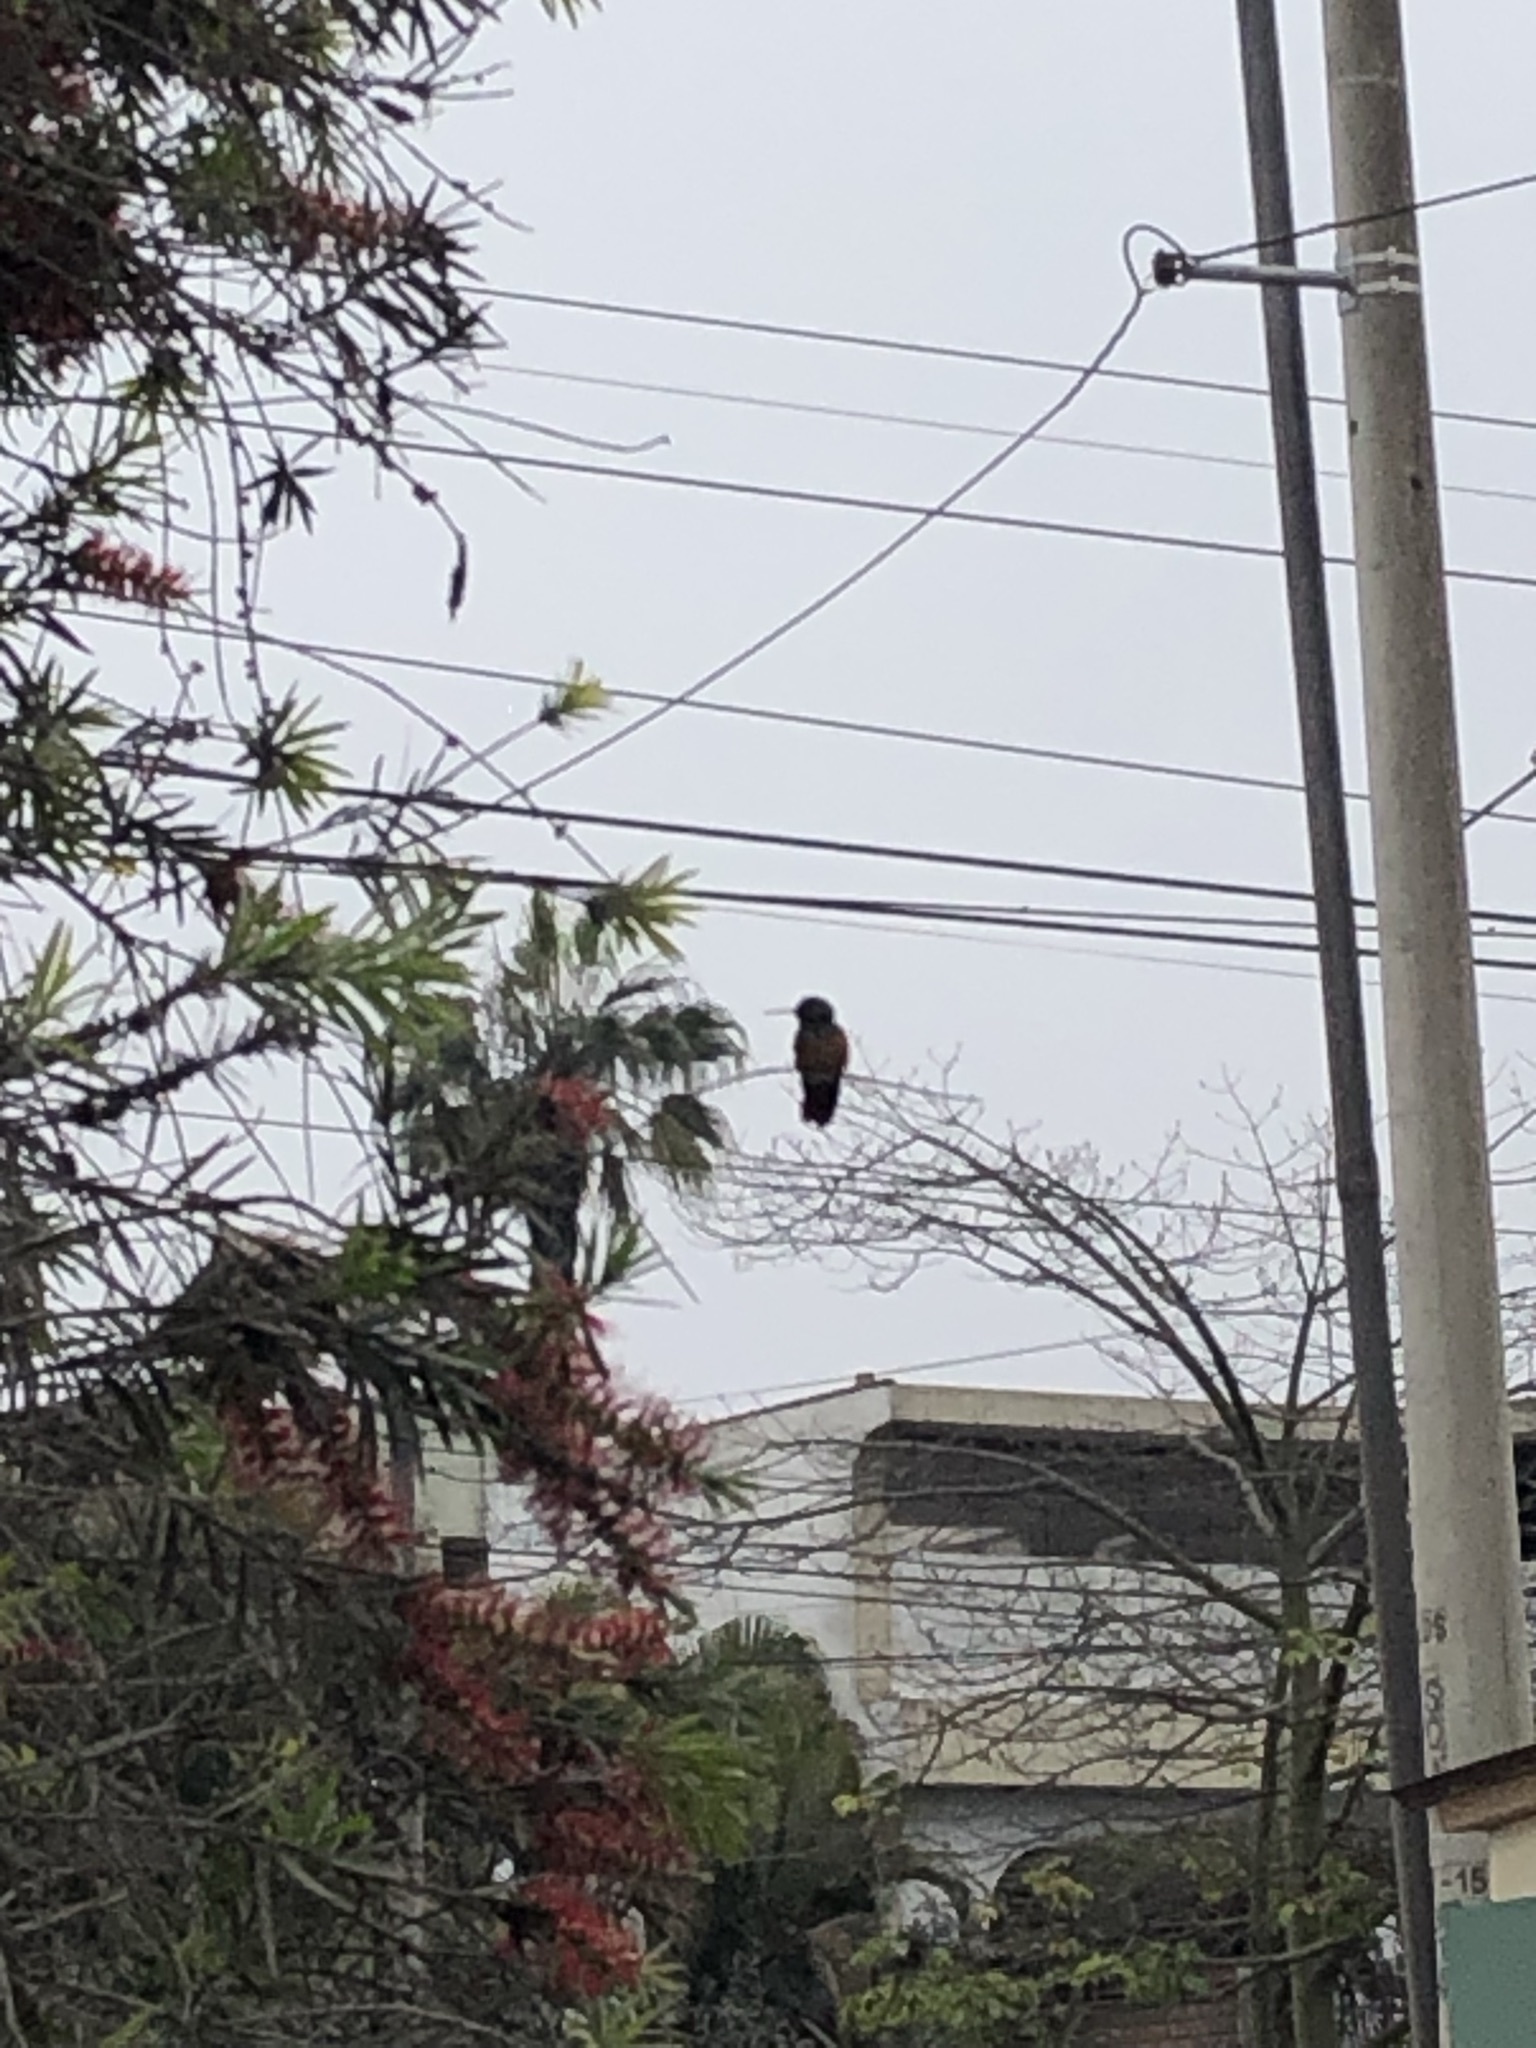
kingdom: Animalia
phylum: Chordata
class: Aves
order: Apodiformes
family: Trochilidae
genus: Amazilis
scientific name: Amazilis amazilia
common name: Amazilia hummingbird
